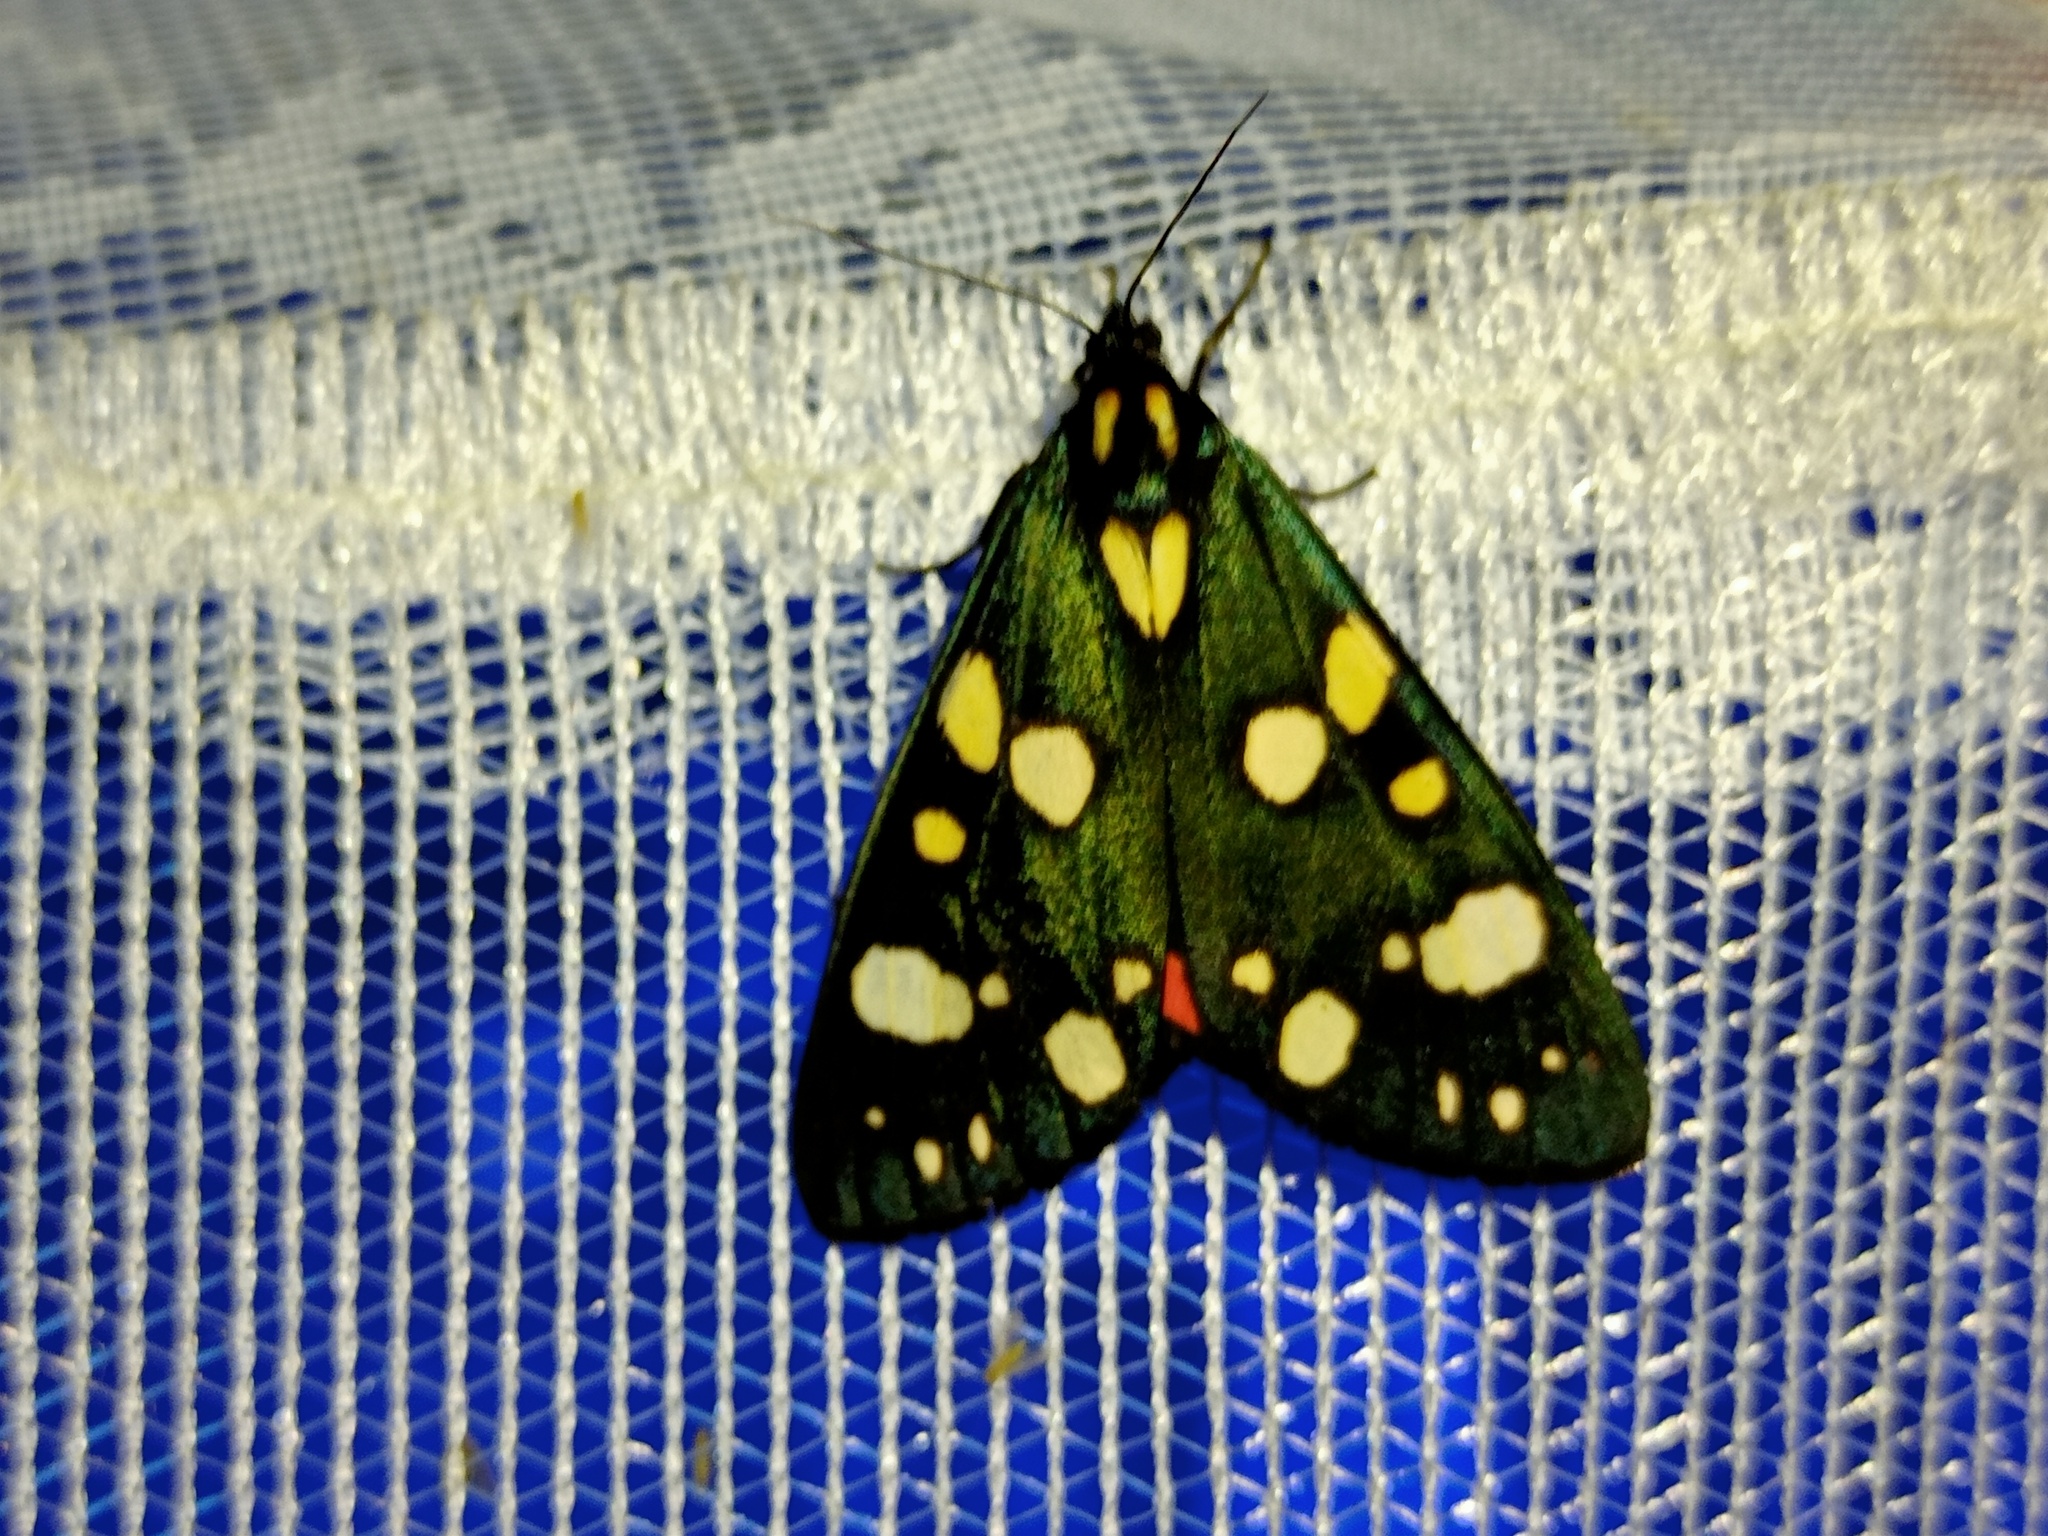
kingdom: Animalia
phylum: Arthropoda
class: Insecta
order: Lepidoptera
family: Erebidae
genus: Callimorpha
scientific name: Callimorpha dominula
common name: Scarlet tiger
